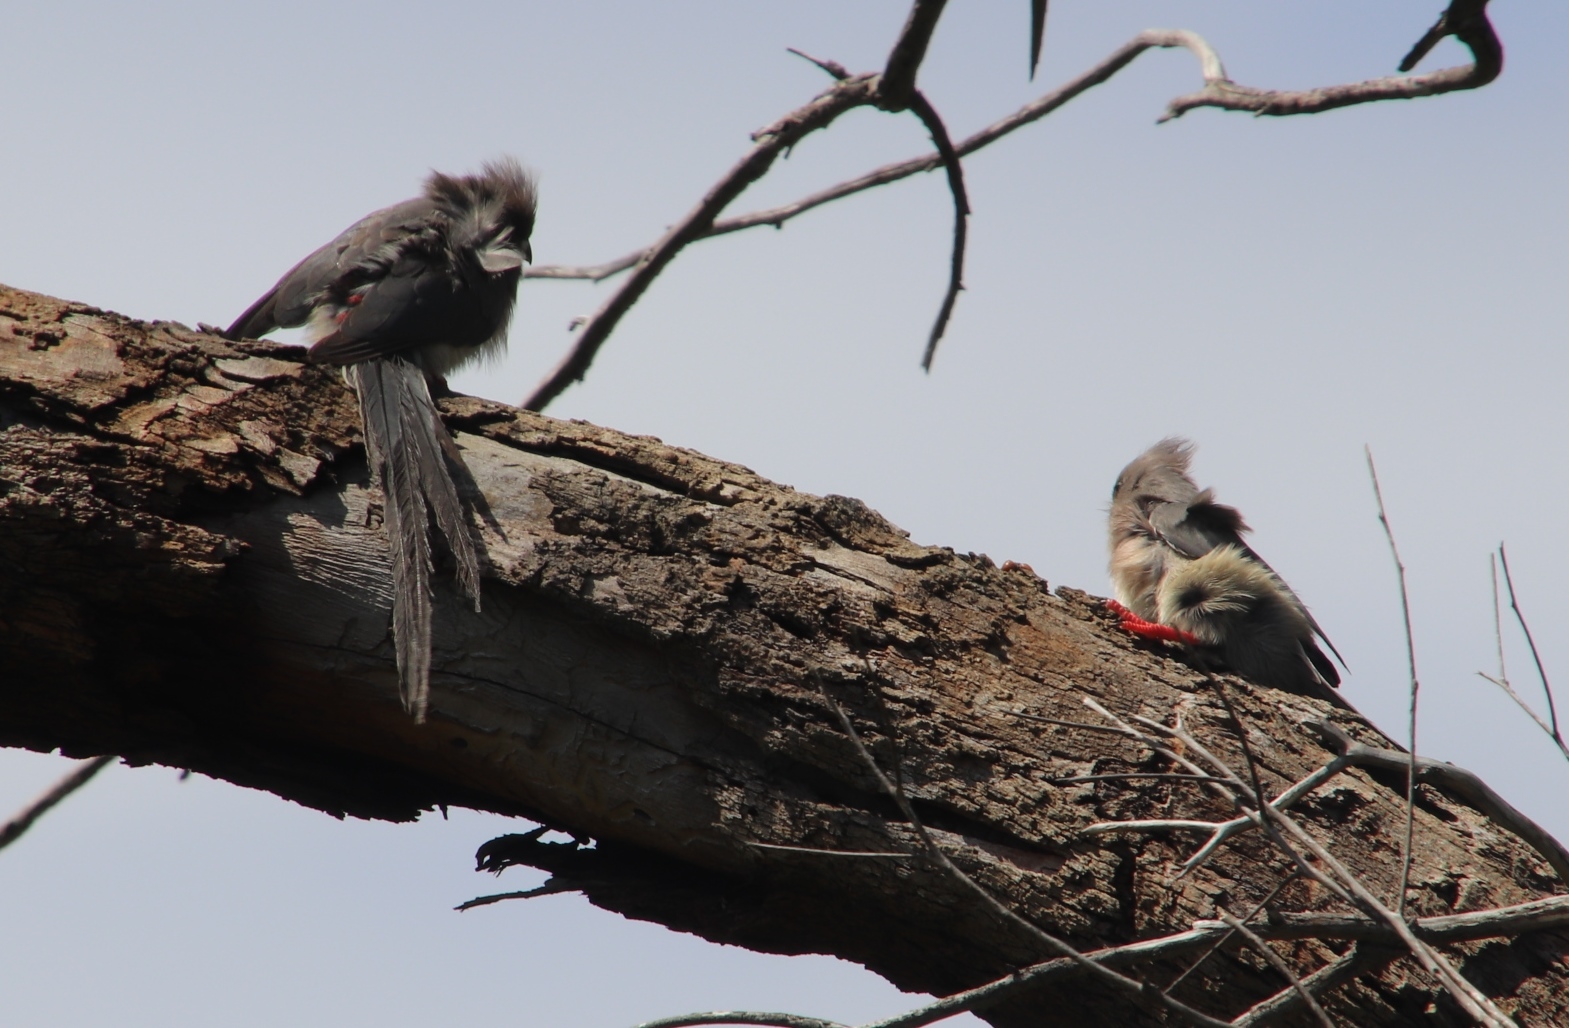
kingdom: Animalia
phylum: Chordata
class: Aves
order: Coliiformes
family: Coliidae
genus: Colius
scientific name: Colius colius
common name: White-backed mousebird
